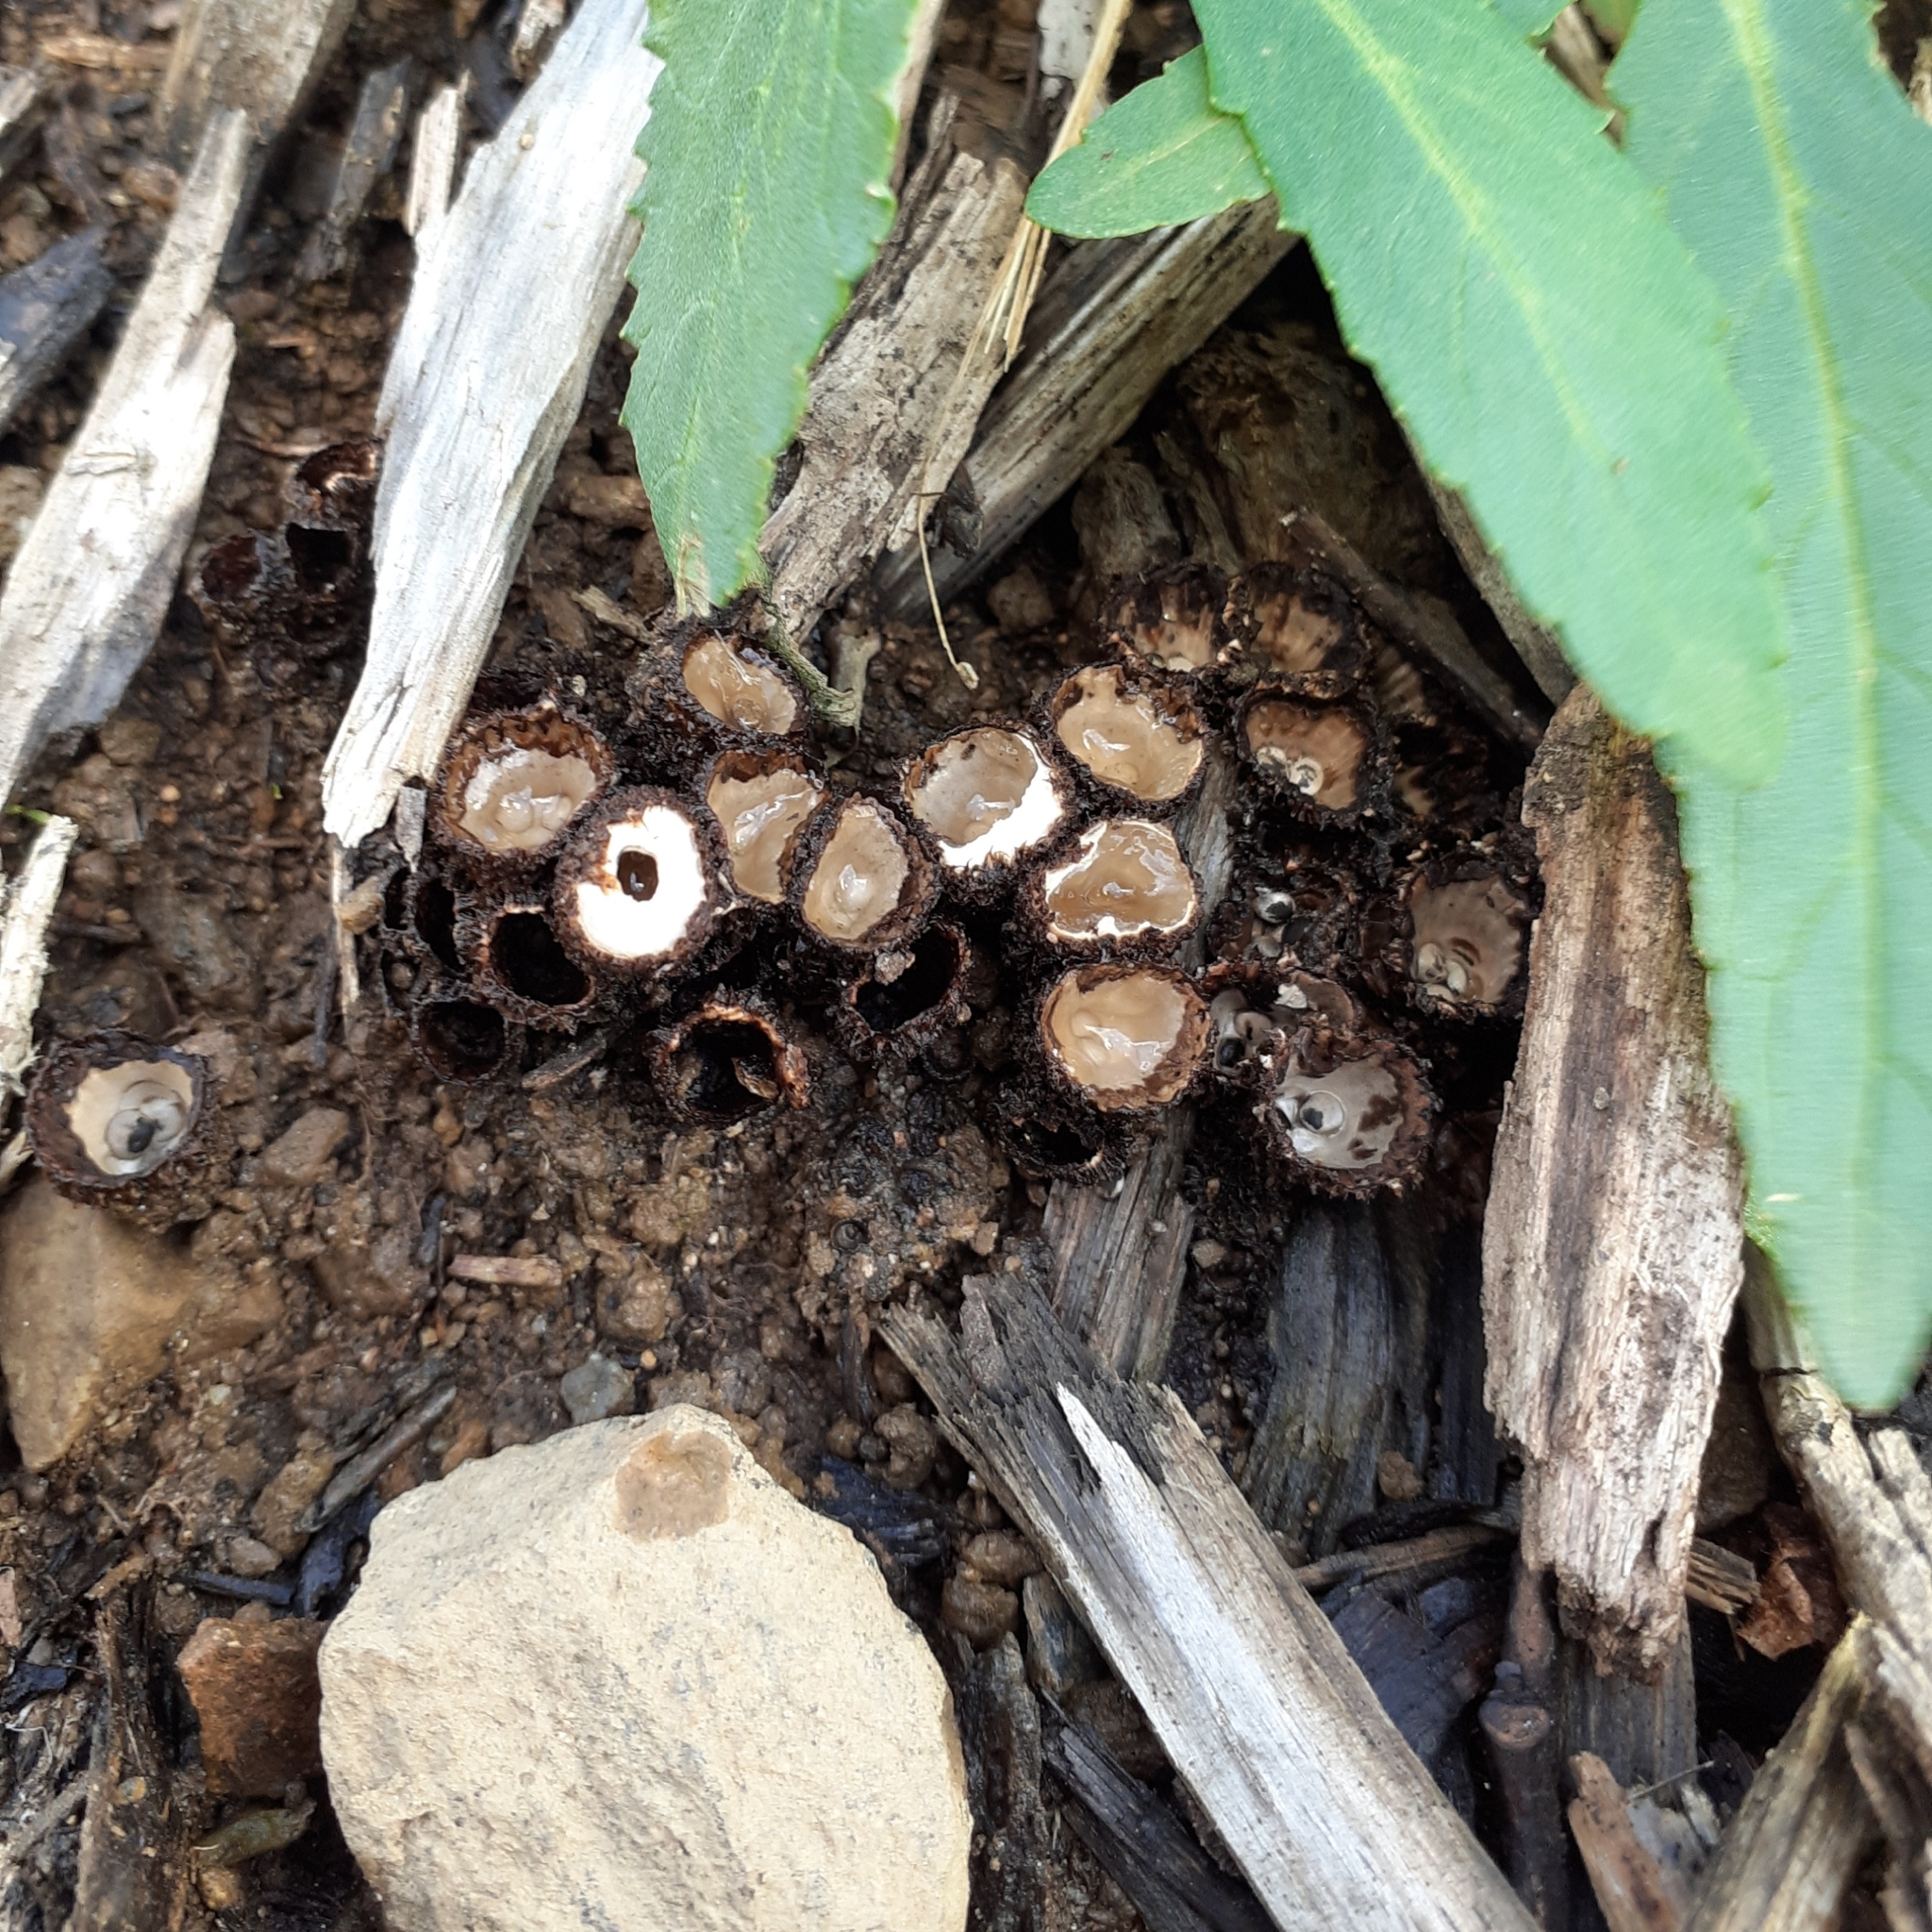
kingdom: Fungi
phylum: Basidiomycota
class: Agaricomycetes
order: Agaricales
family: Agaricaceae
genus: Cyathus
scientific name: Cyathus striatus
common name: Fluted bird's nest
